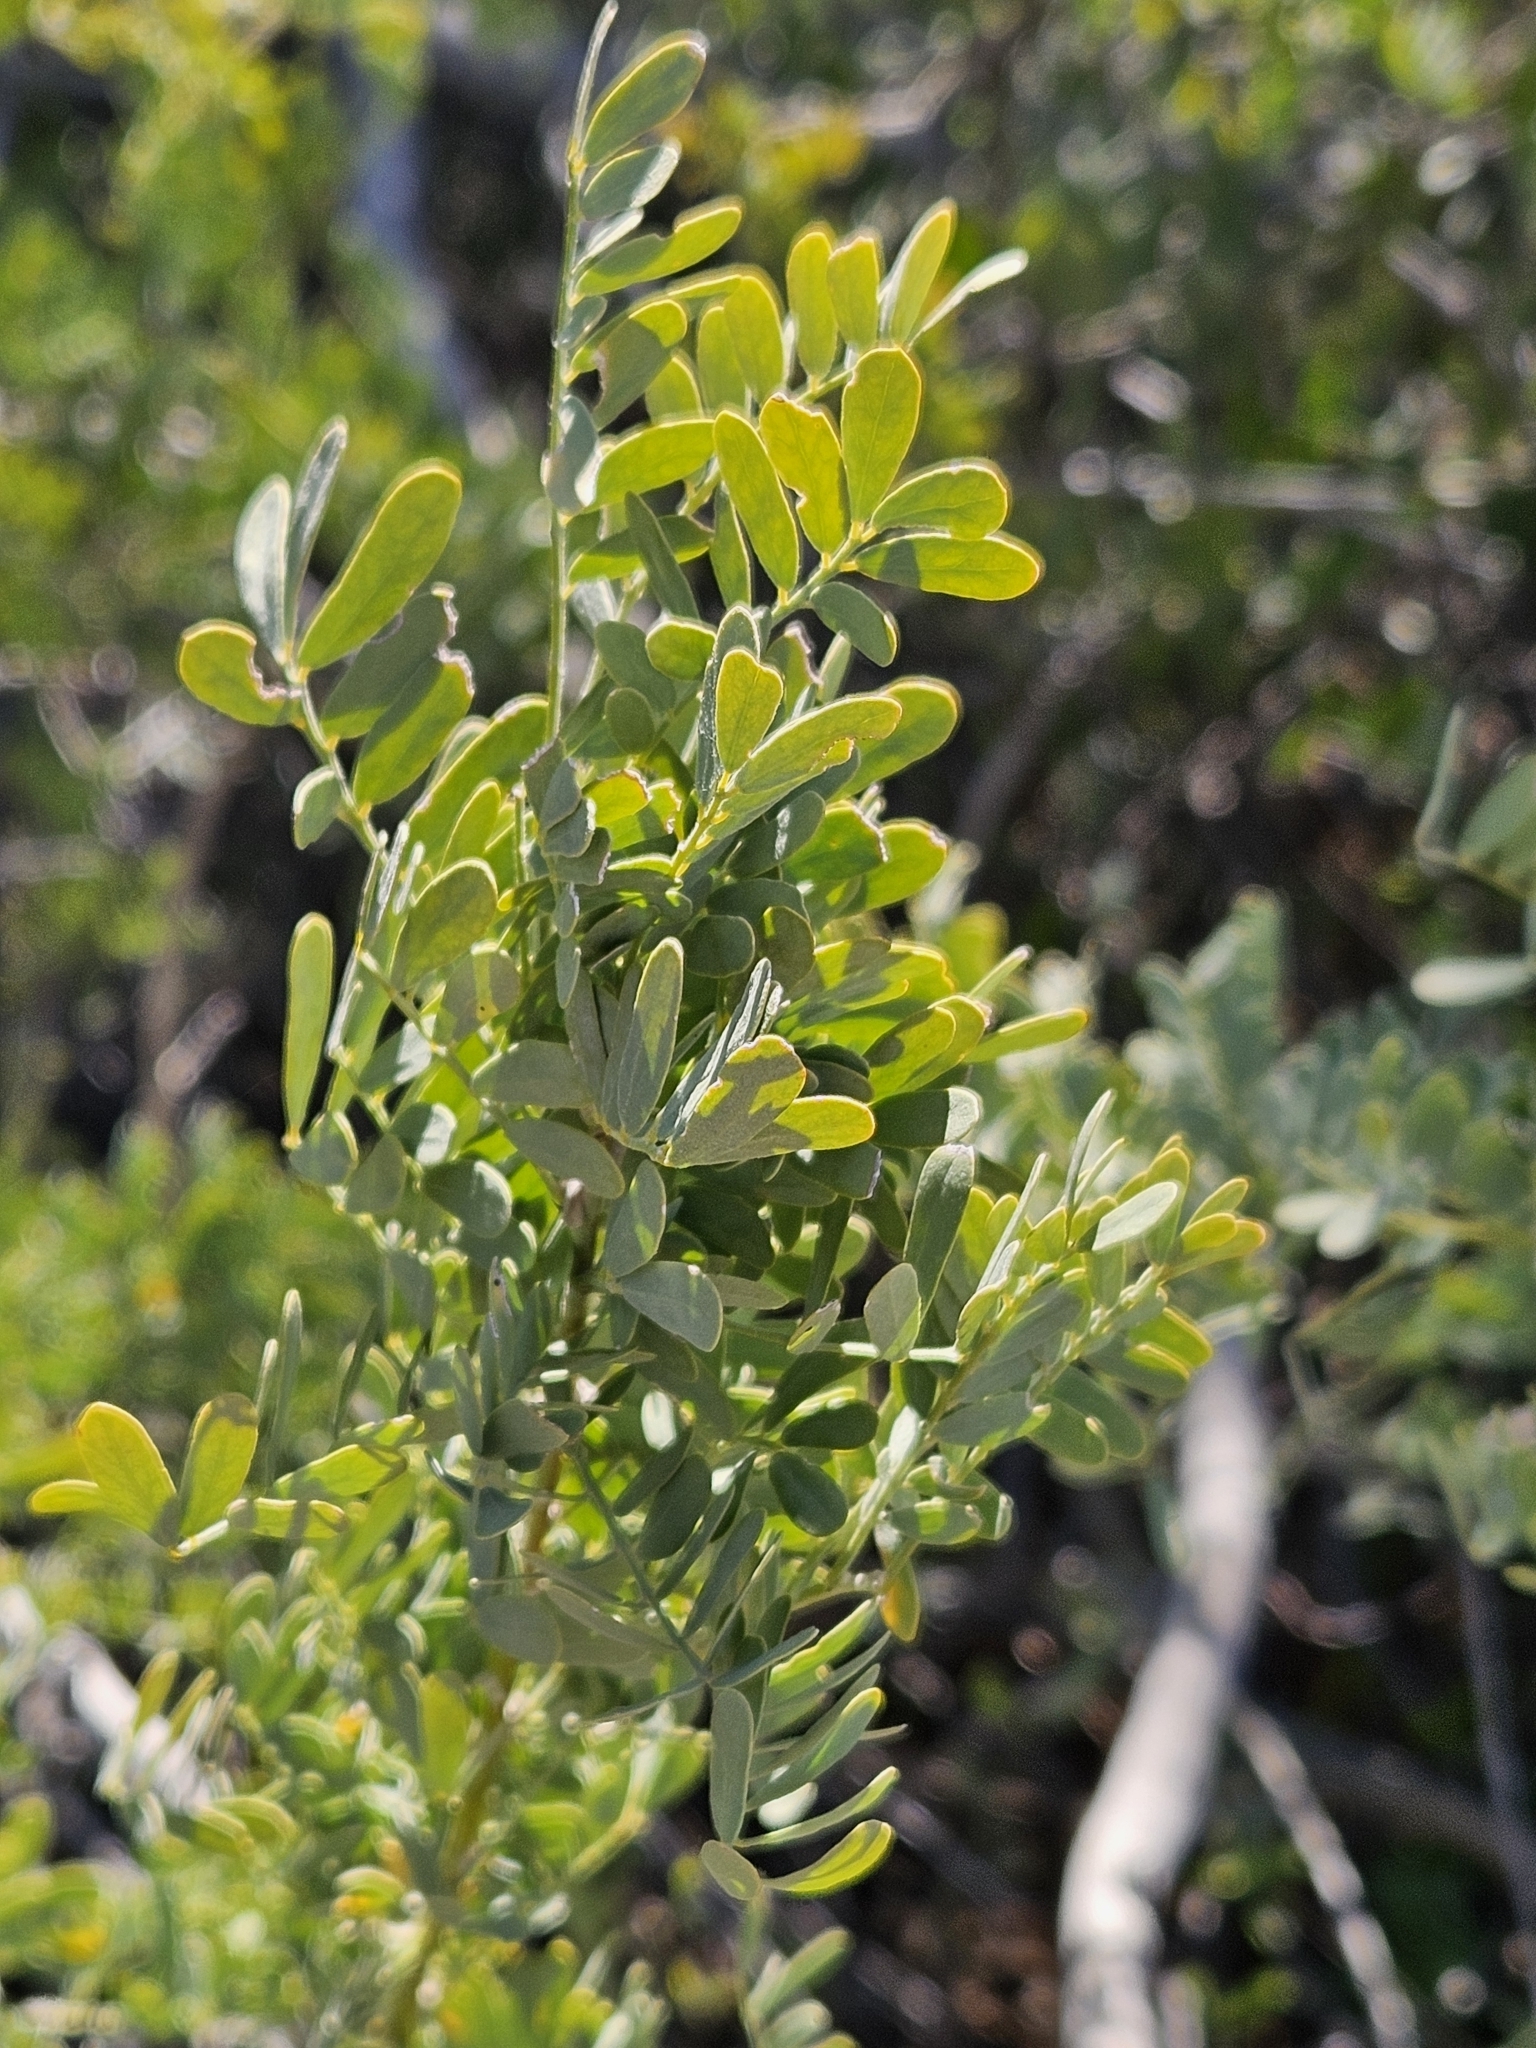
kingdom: Plantae
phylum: Tracheophyta
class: Magnoliopsida
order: Caryophyllales
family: Simmondsiaceae
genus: Simmondsia
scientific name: Simmondsia chinensis
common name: Jojoba
